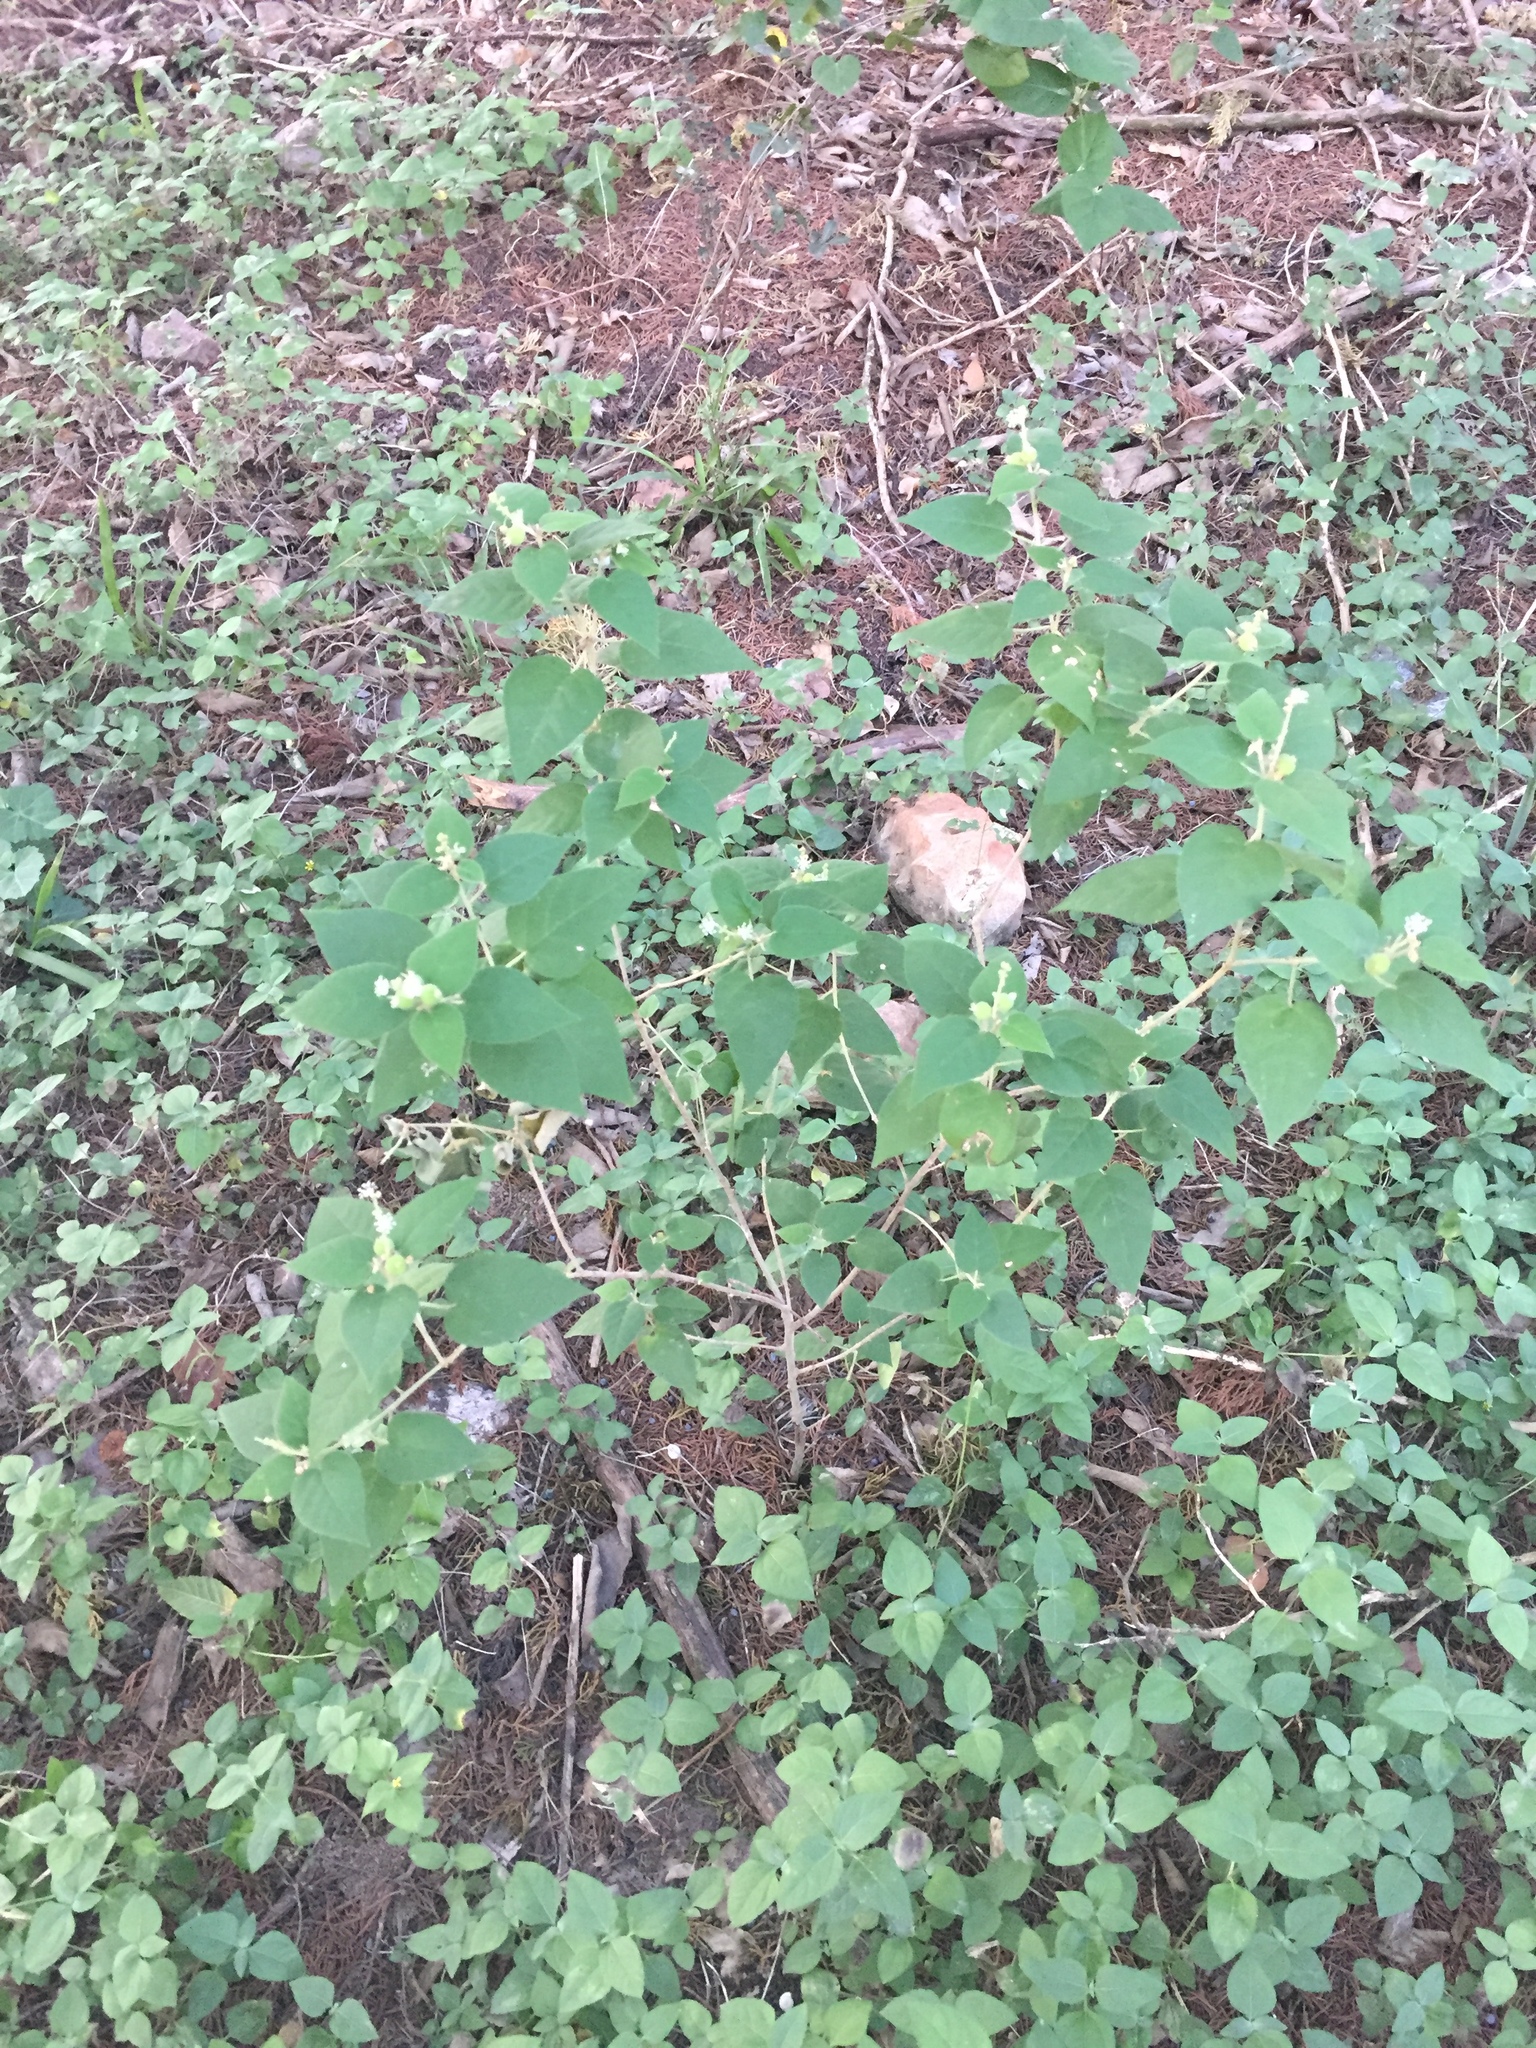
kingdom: Plantae
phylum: Tracheophyta
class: Magnoliopsida
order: Malpighiales
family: Euphorbiaceae
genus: Croton
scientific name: Croton fruticulosus
